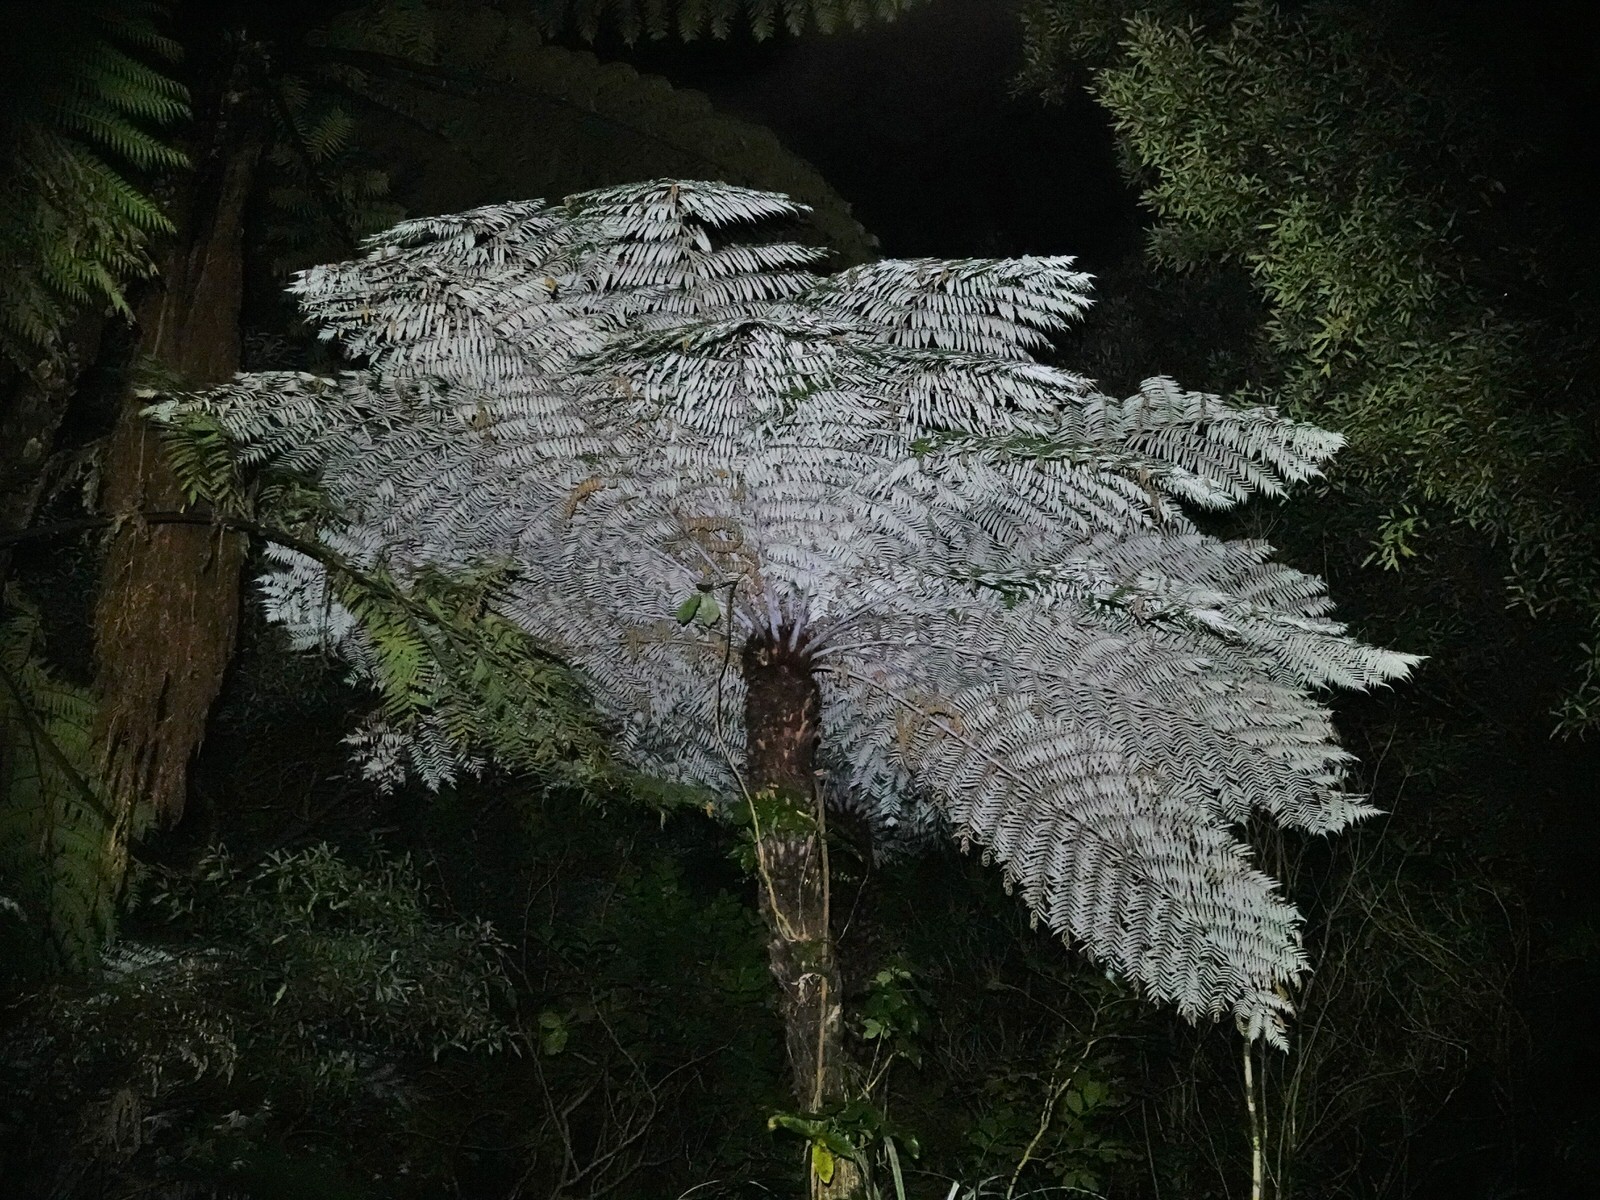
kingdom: Plantae
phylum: Tracheophyta
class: Polypodiopsida
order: Cyatheales
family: Cyatheaceae
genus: Alsophila
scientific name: Alsophila dealbata
